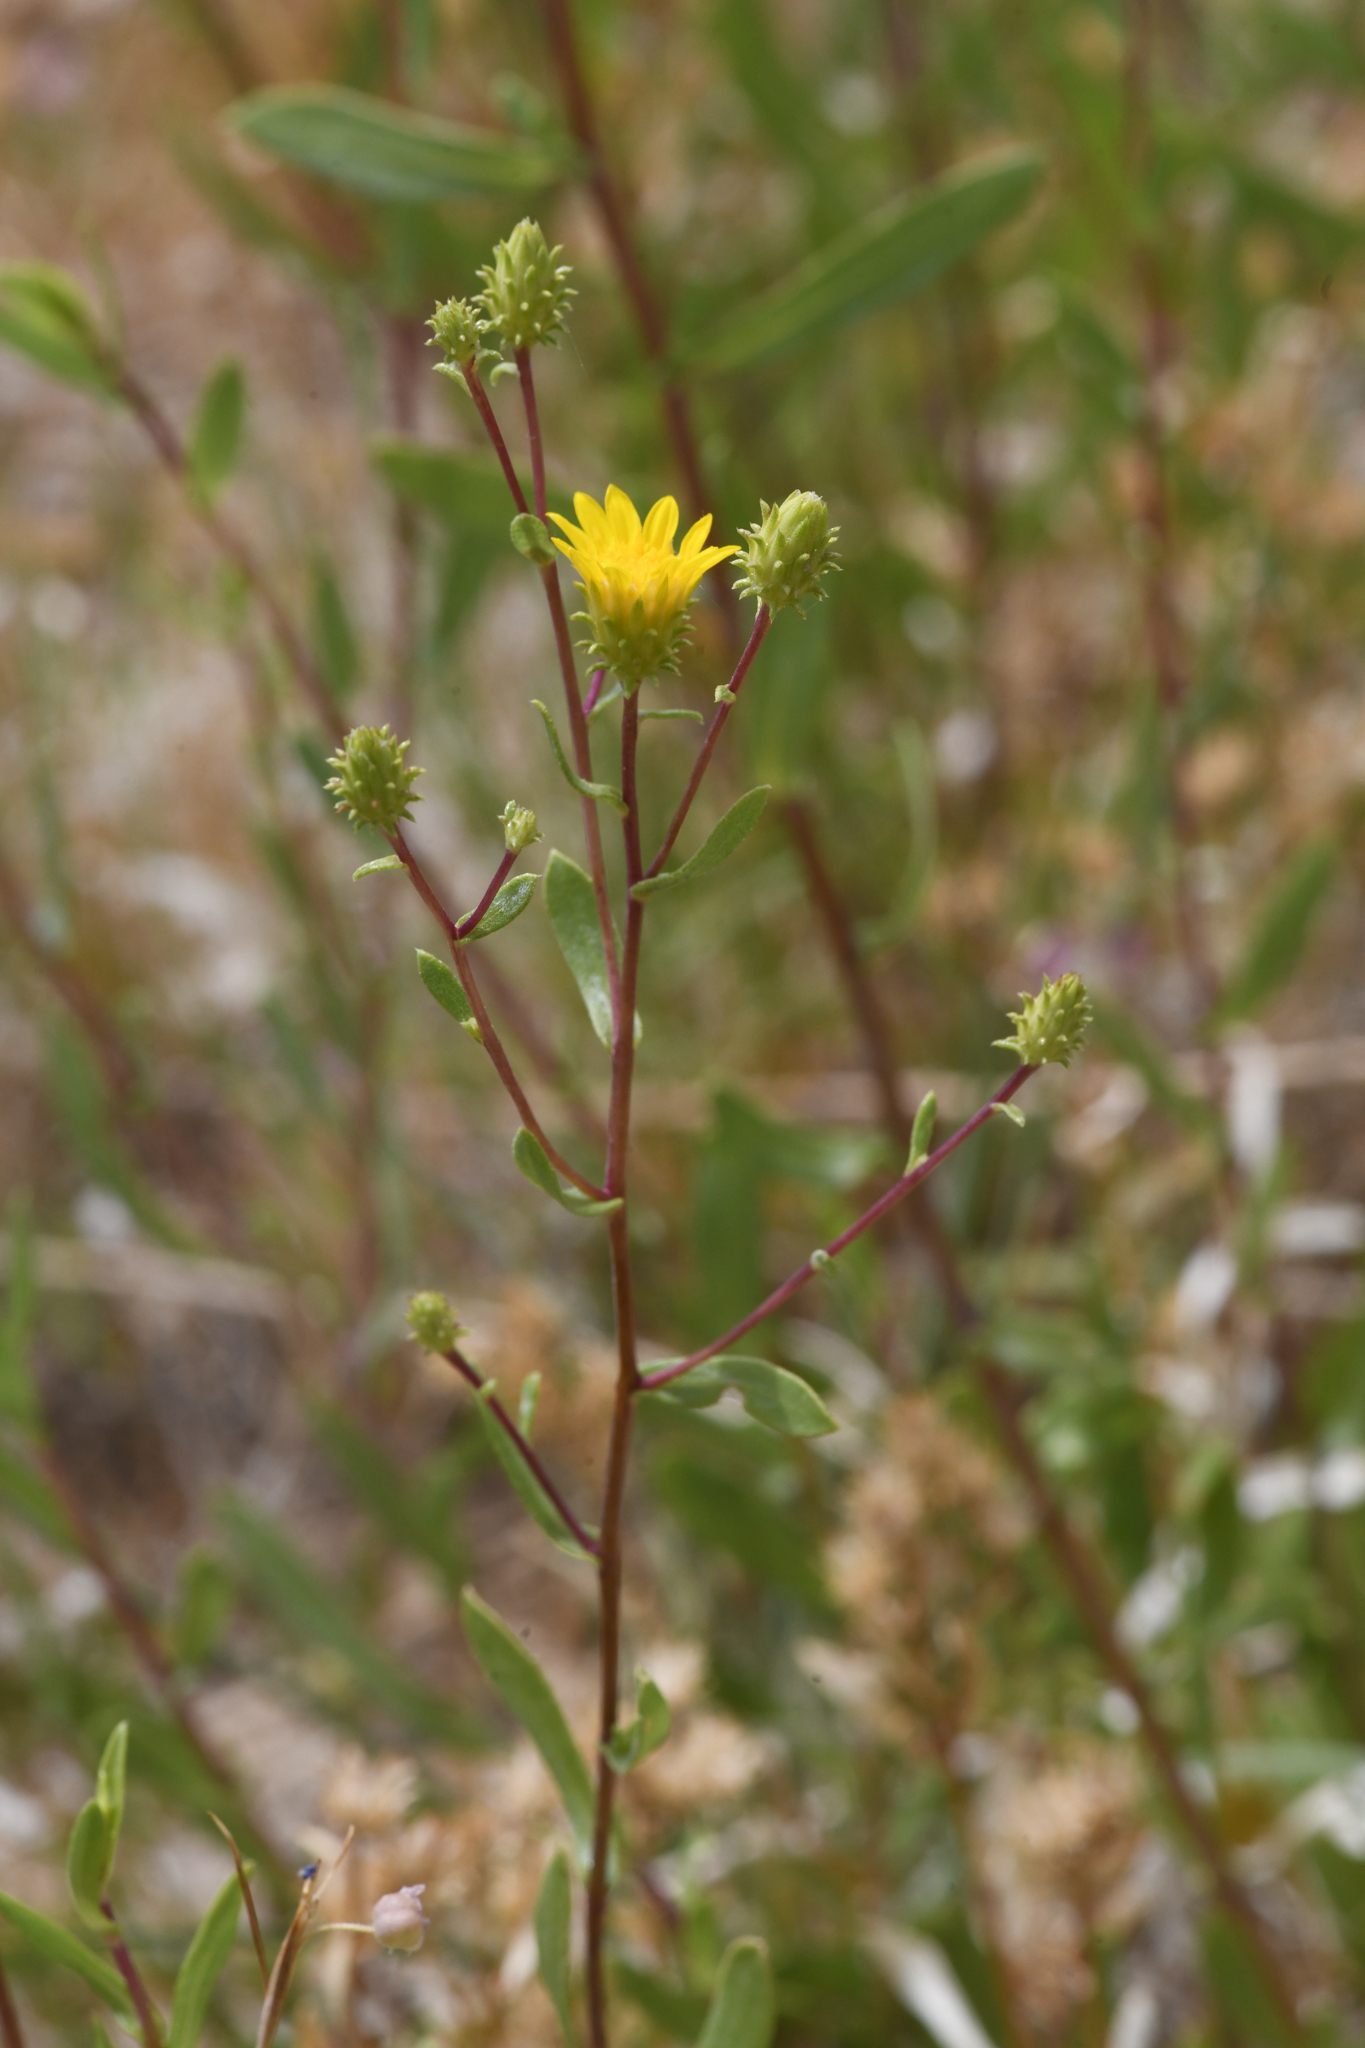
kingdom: Plantae
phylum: Tracheophyta
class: Magnoliopsida
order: Asterales
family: Asteraceae
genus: Grindelia
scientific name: Grindelia fraxinipratensis
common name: Ash meadows gumplant
